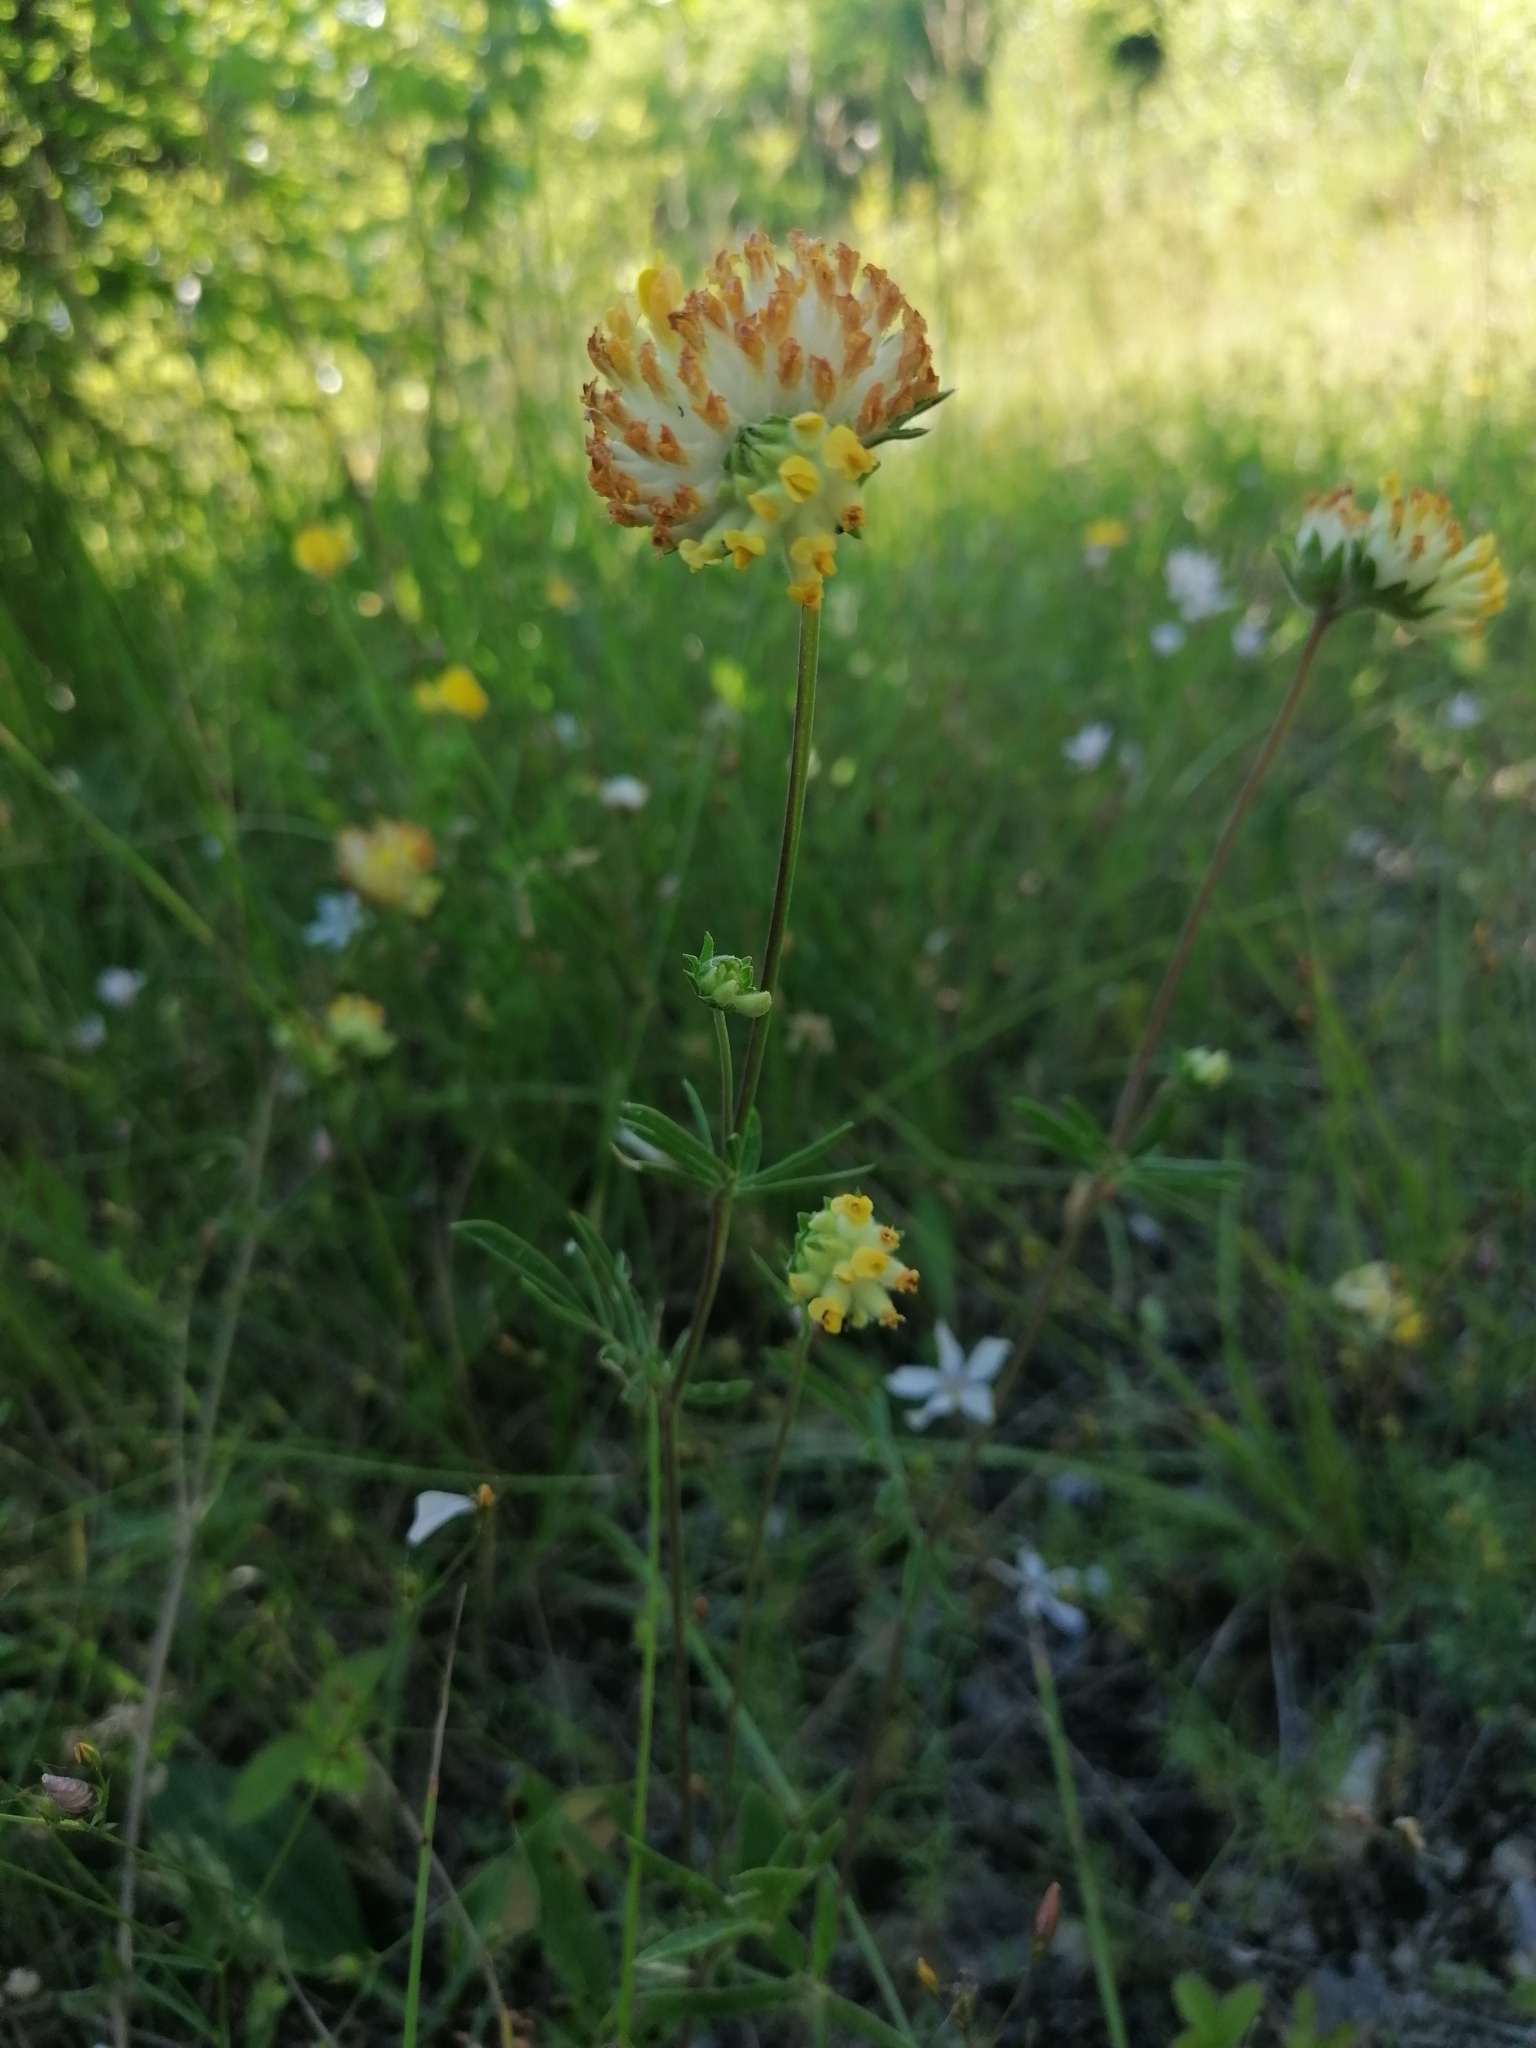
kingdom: Plantae
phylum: Tracheophyta
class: Magnoliopsida
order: Fabales
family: Fabaceae
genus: Anthyllis
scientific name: Anthyllis vulneraria
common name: Kidney vetch
